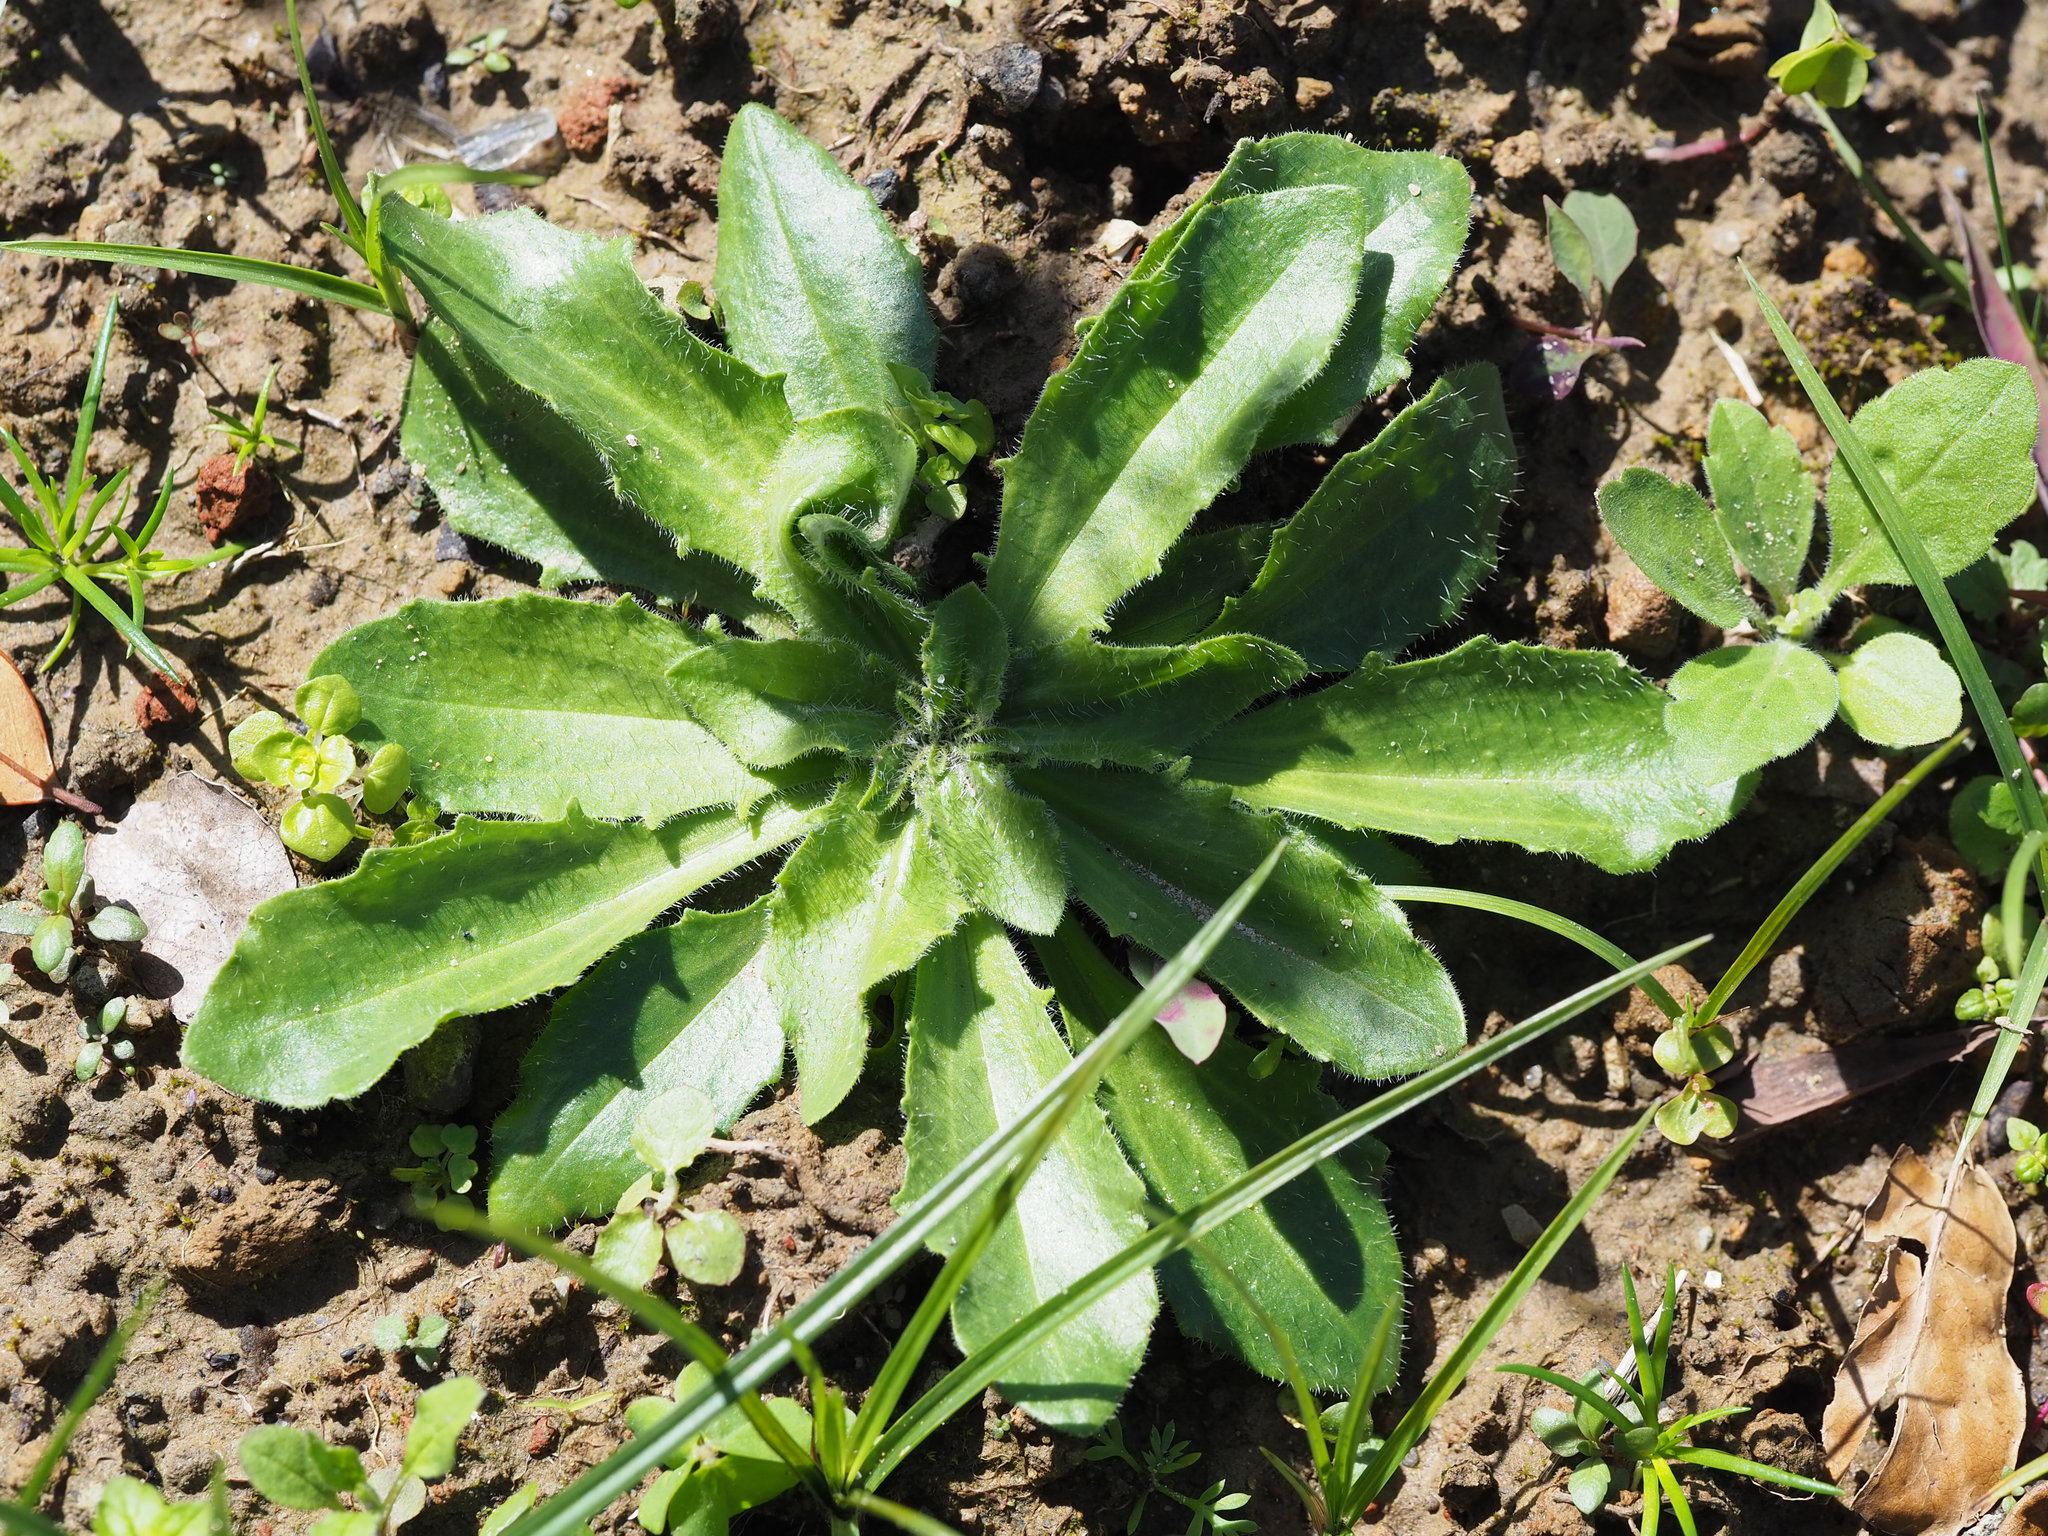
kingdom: Plantae
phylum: Tracheophyta
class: Magnoliopsida
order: Lamiales
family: Plantaginaceae
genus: Plantago
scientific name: Plantago virginica
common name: Hoary plantain
